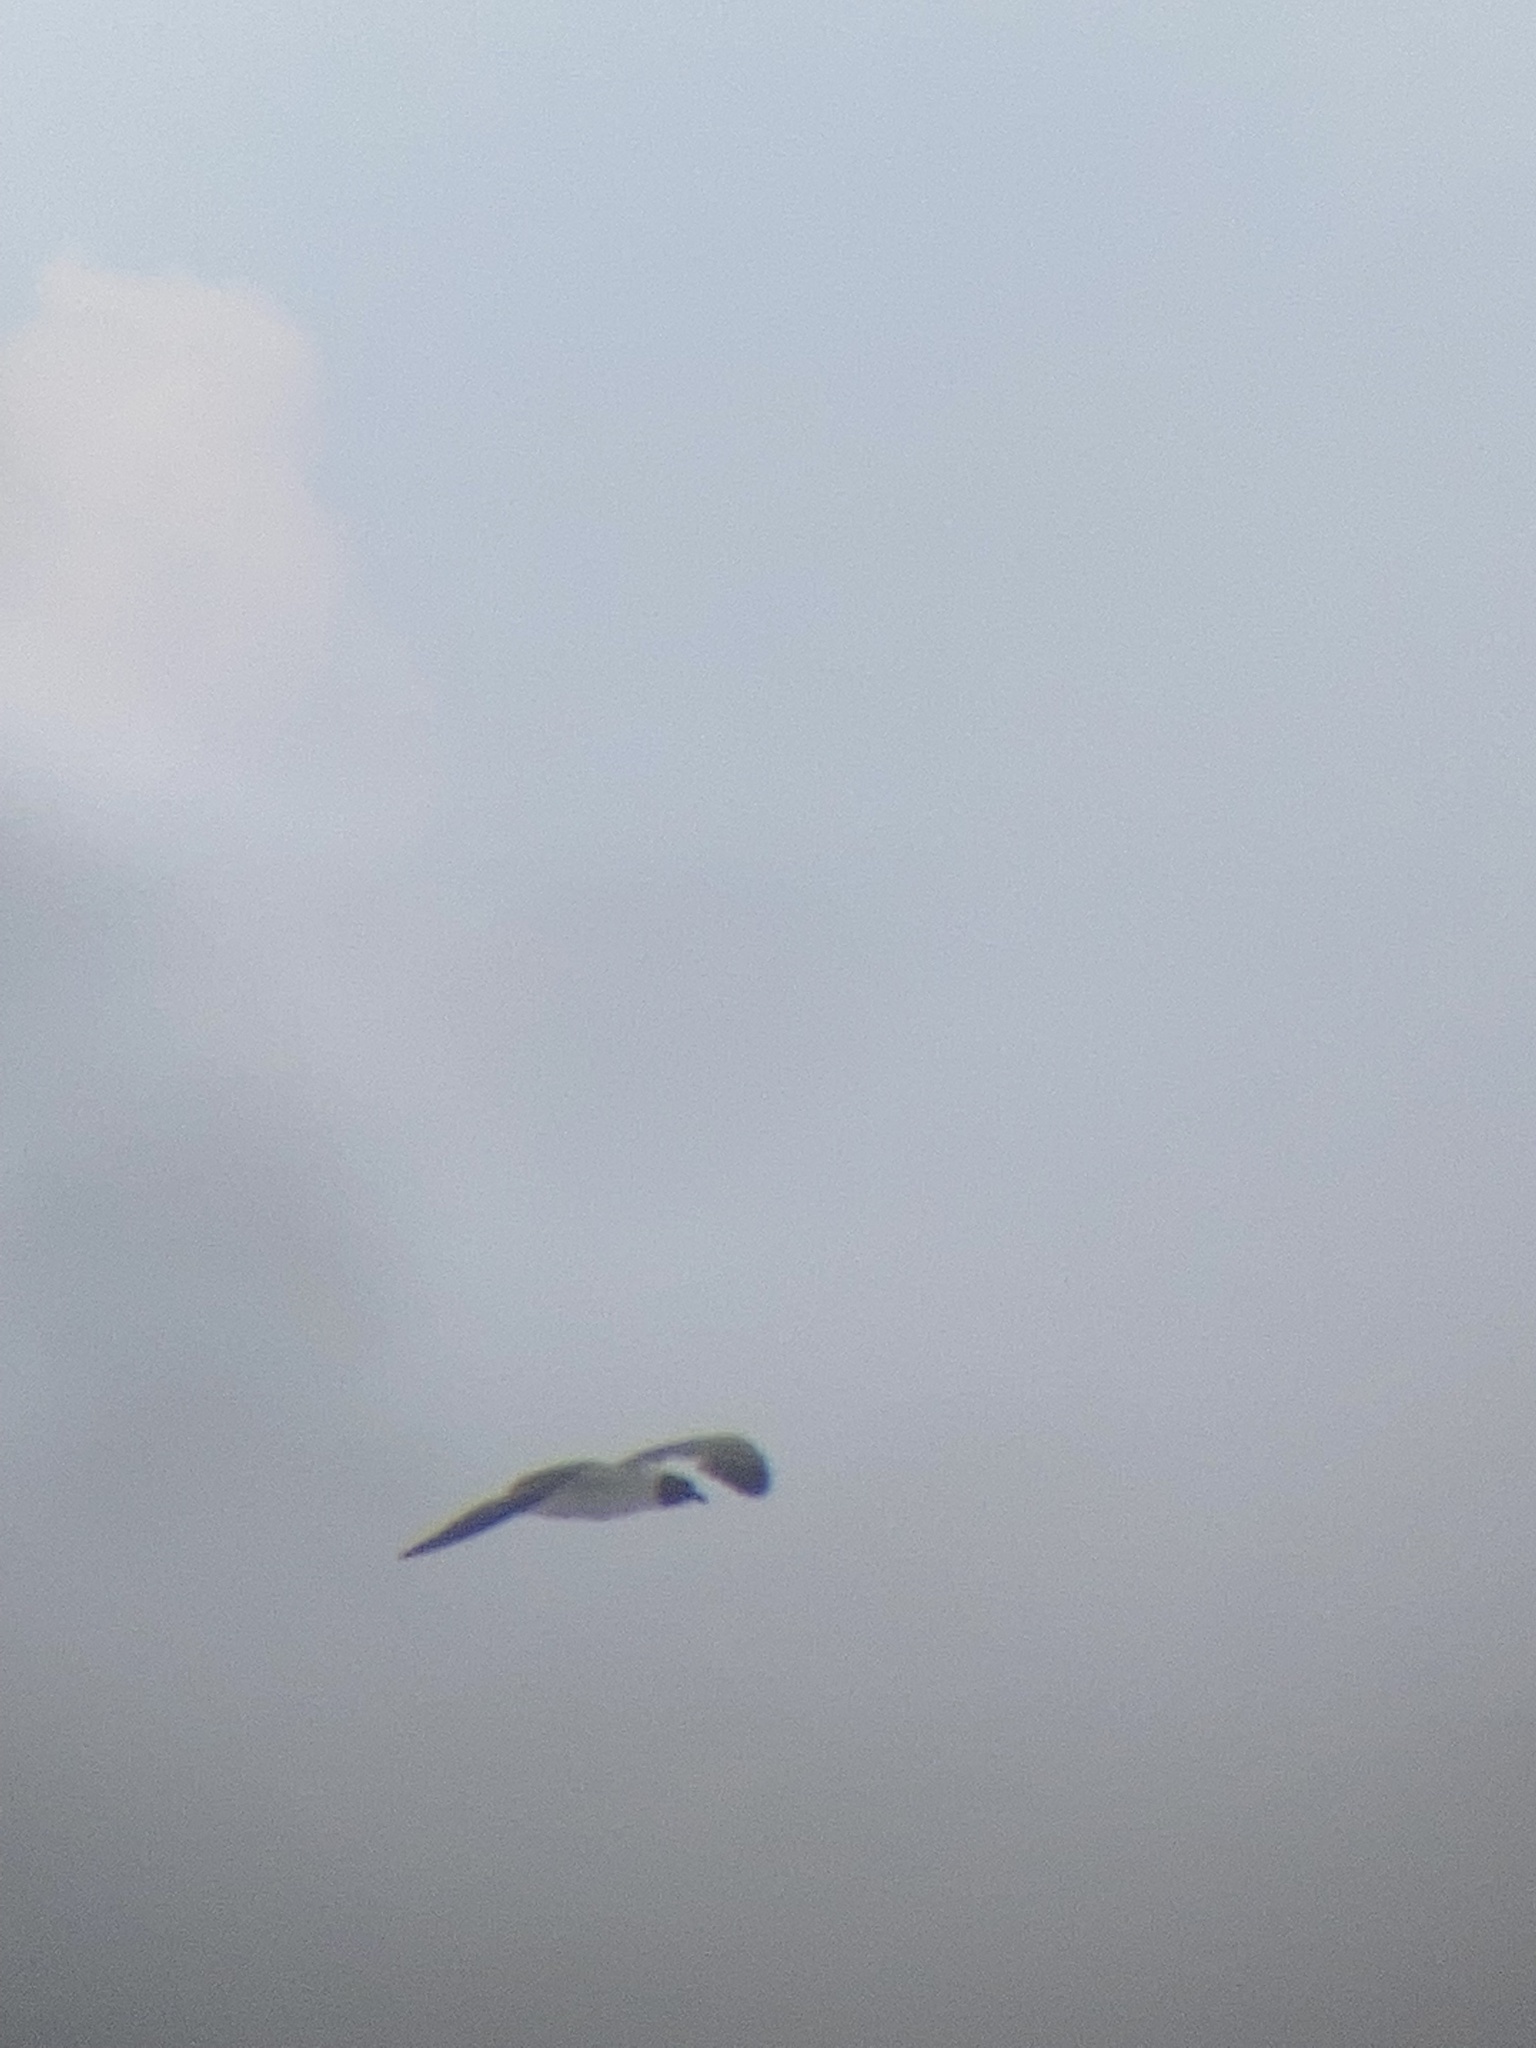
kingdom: Animalia
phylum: Chordata
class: Aves
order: Charadriiformes
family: Laridae
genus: Leucophaeus
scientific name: Leucophaeus atricilla
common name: Laughing gull
